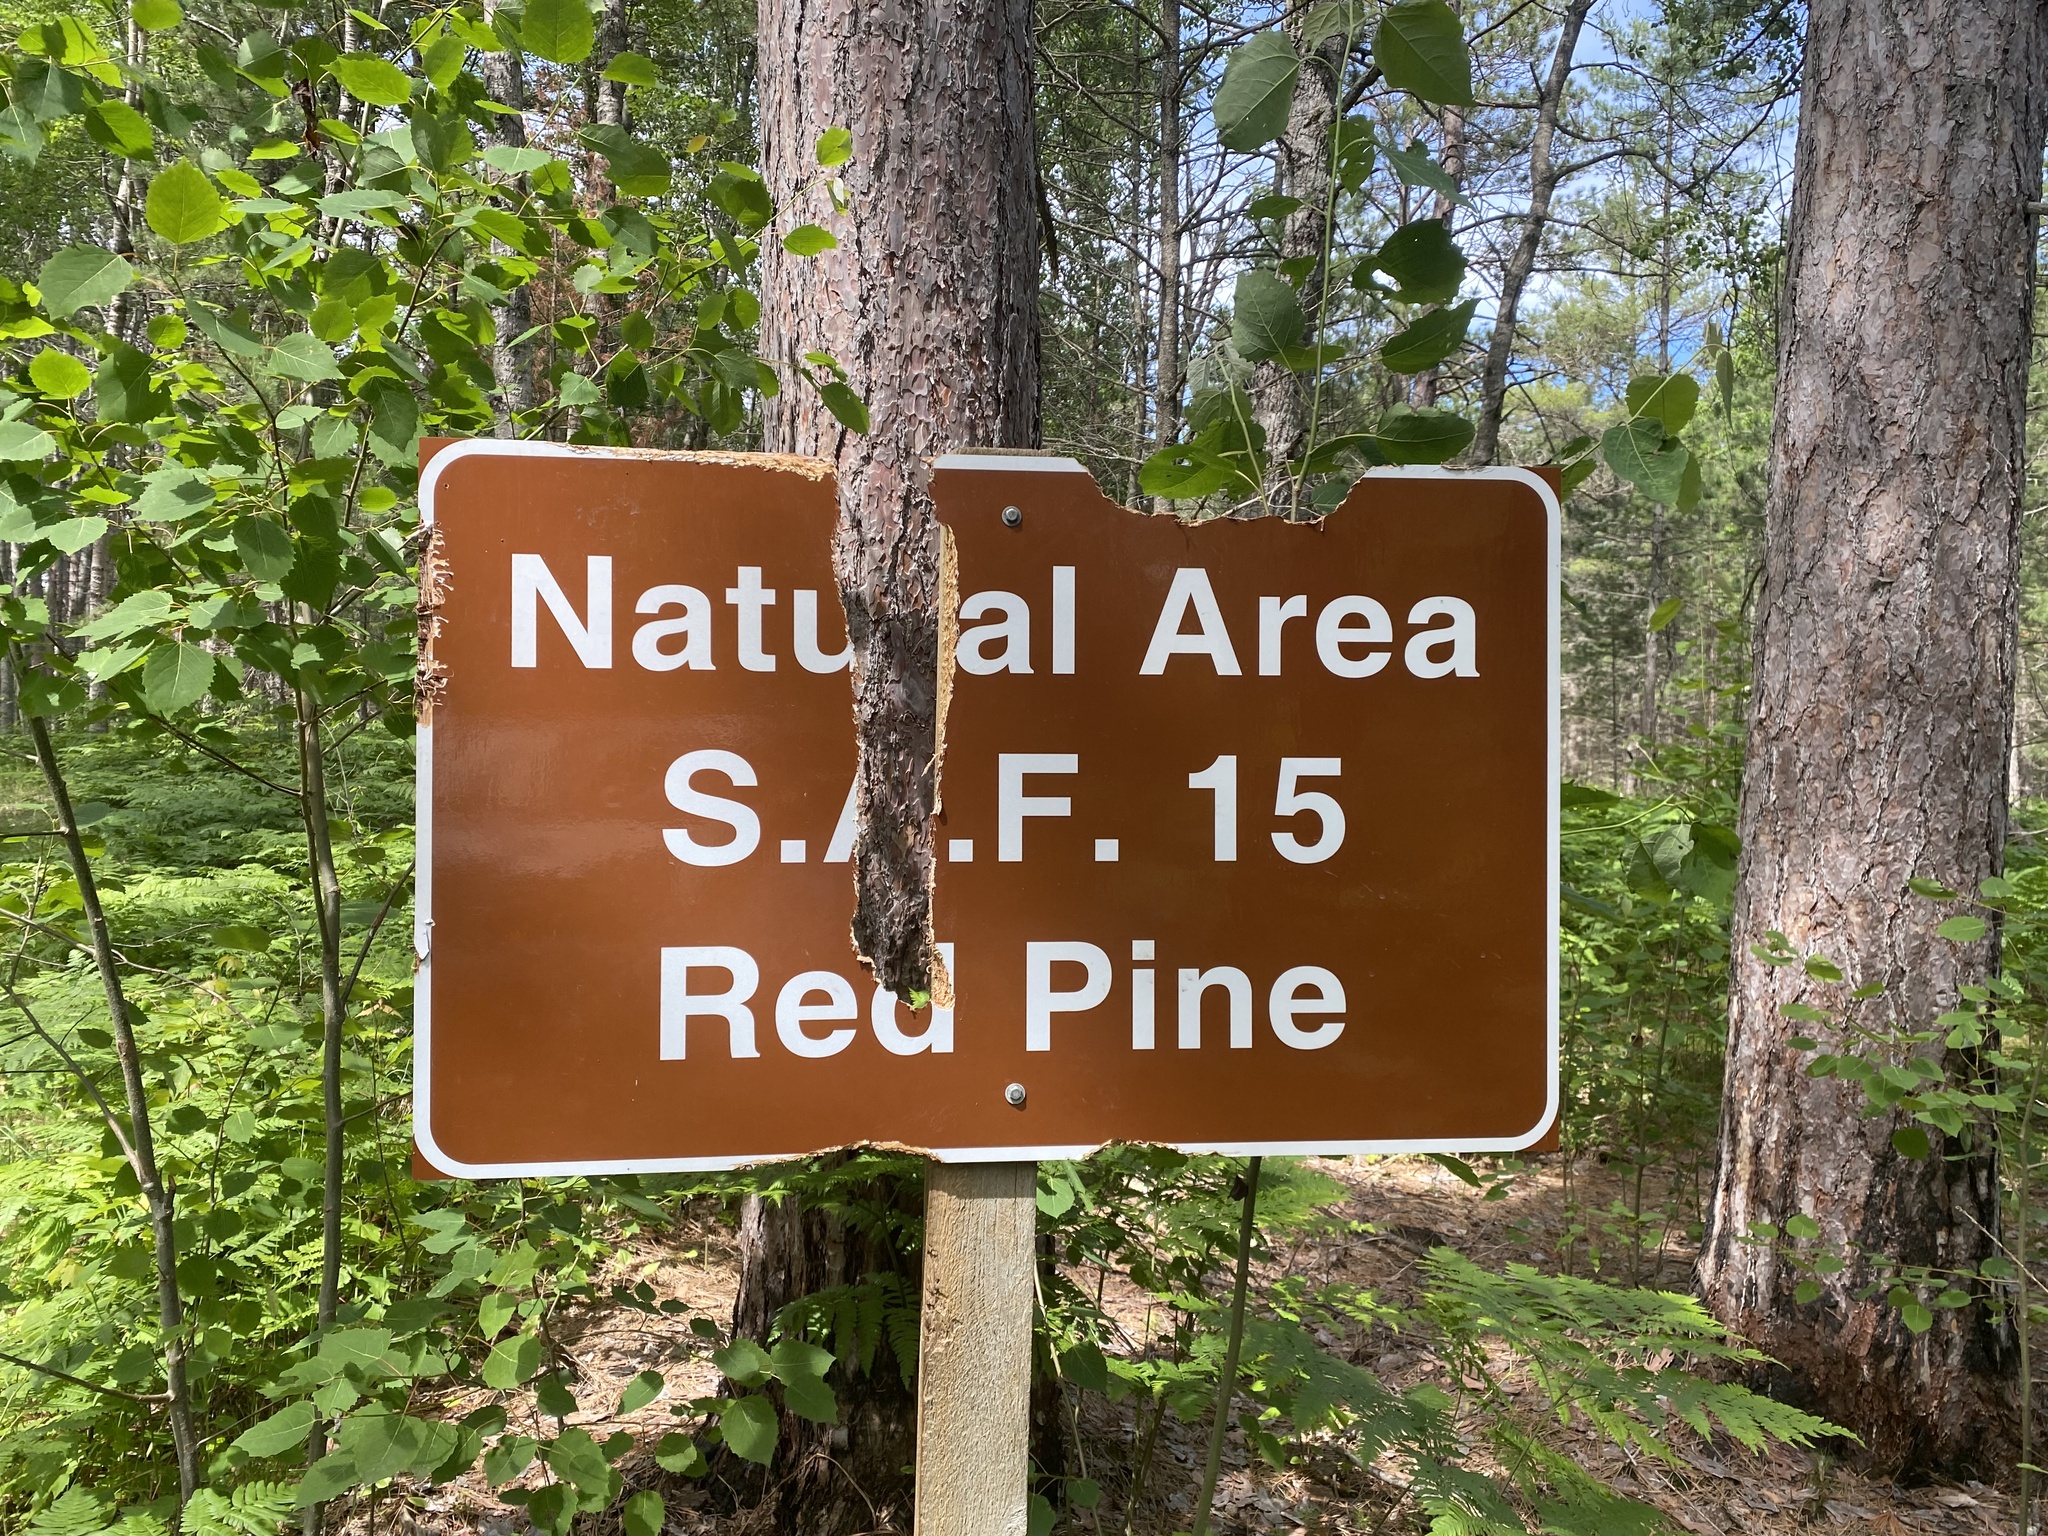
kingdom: Animalia
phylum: Chordata
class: Mammalia
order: Rodentia
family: Erethizontidae
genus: Erethizon
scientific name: Erethizon dorsatus
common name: North american porcupine
